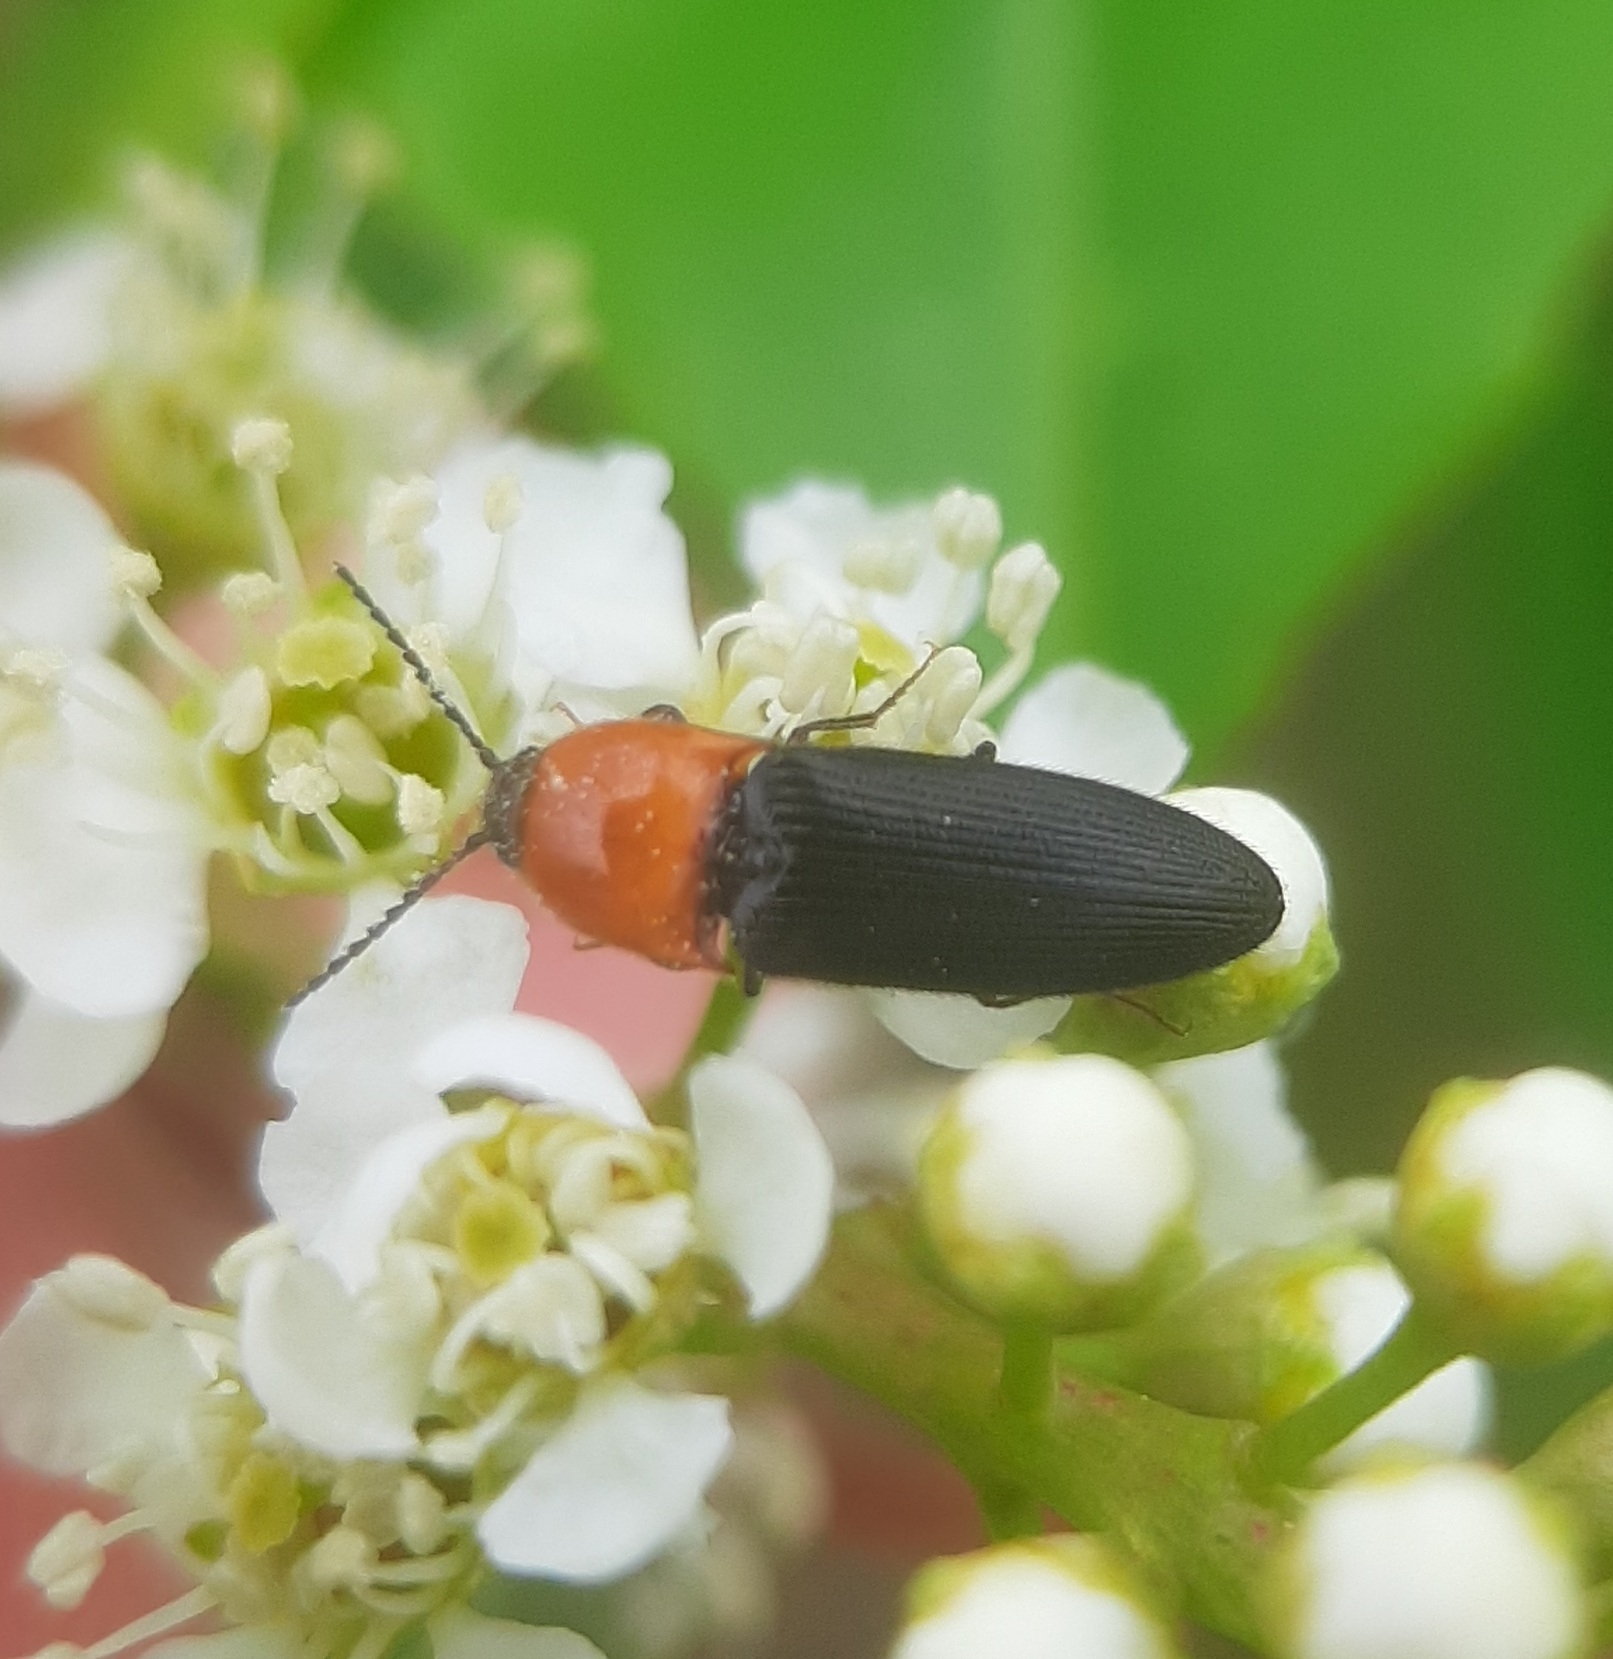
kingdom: Animalia
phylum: Arthropoda
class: Insecta
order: Coleoptera
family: Elateridae
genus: Ampedus
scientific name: Ampedus collaris
